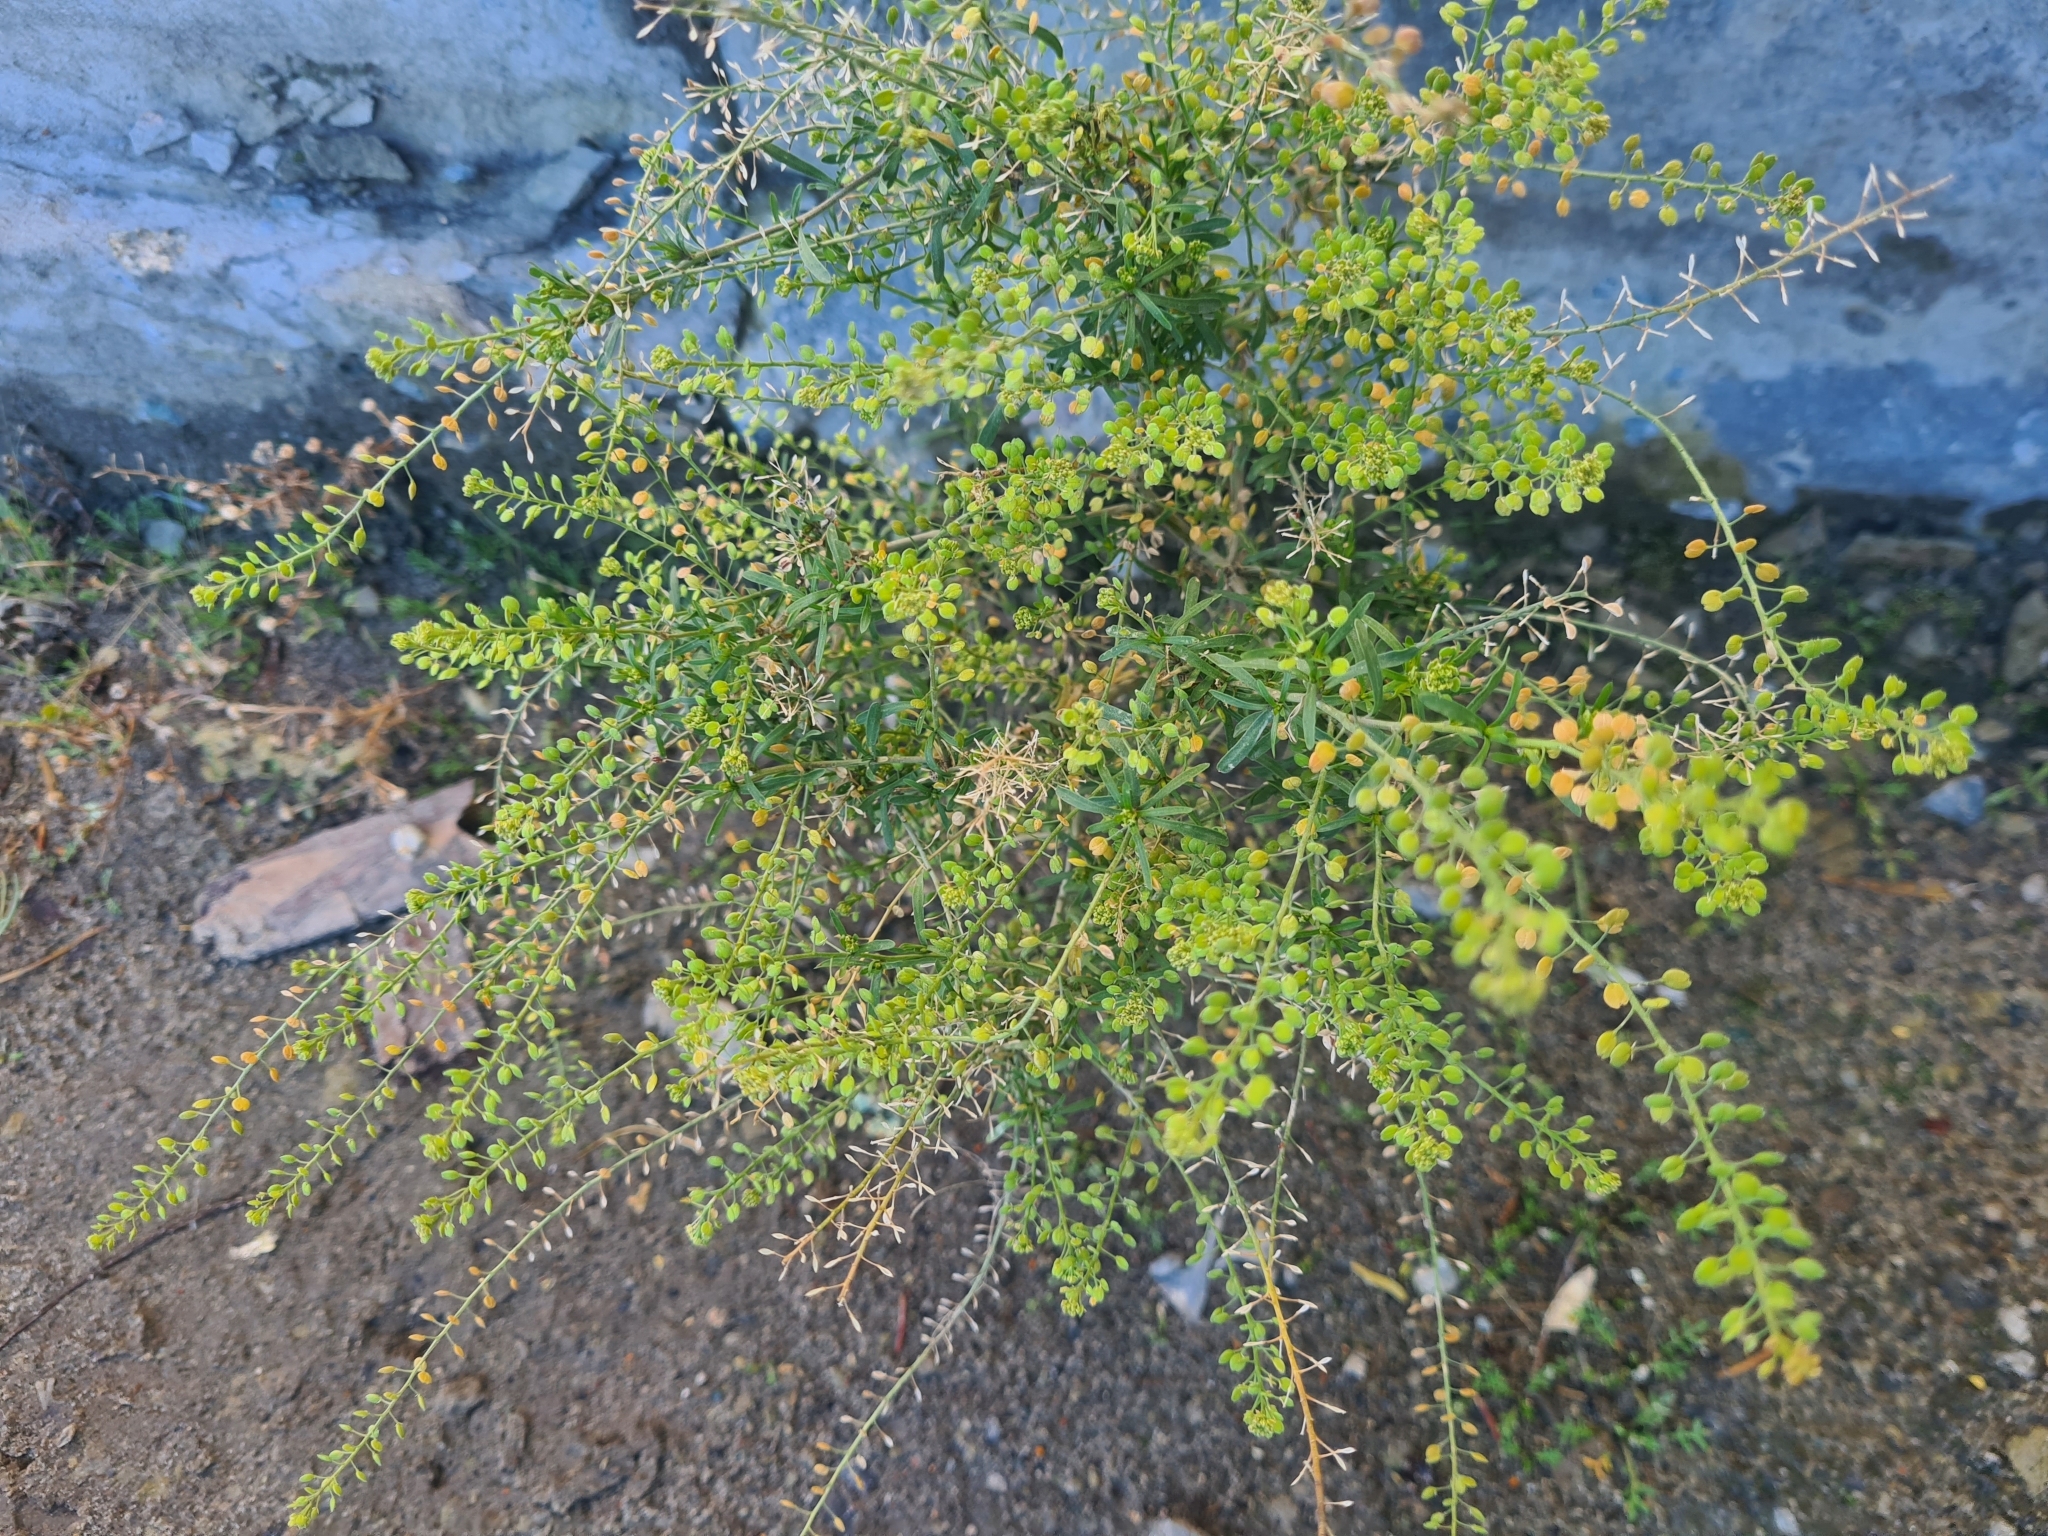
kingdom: Plantae
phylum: Tracheophyta
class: Magnoliopsida
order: Brassicales
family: Brassicaceae
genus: Lepidium
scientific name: Lepidium ruderale
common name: Narrow-leaved pepperwort
